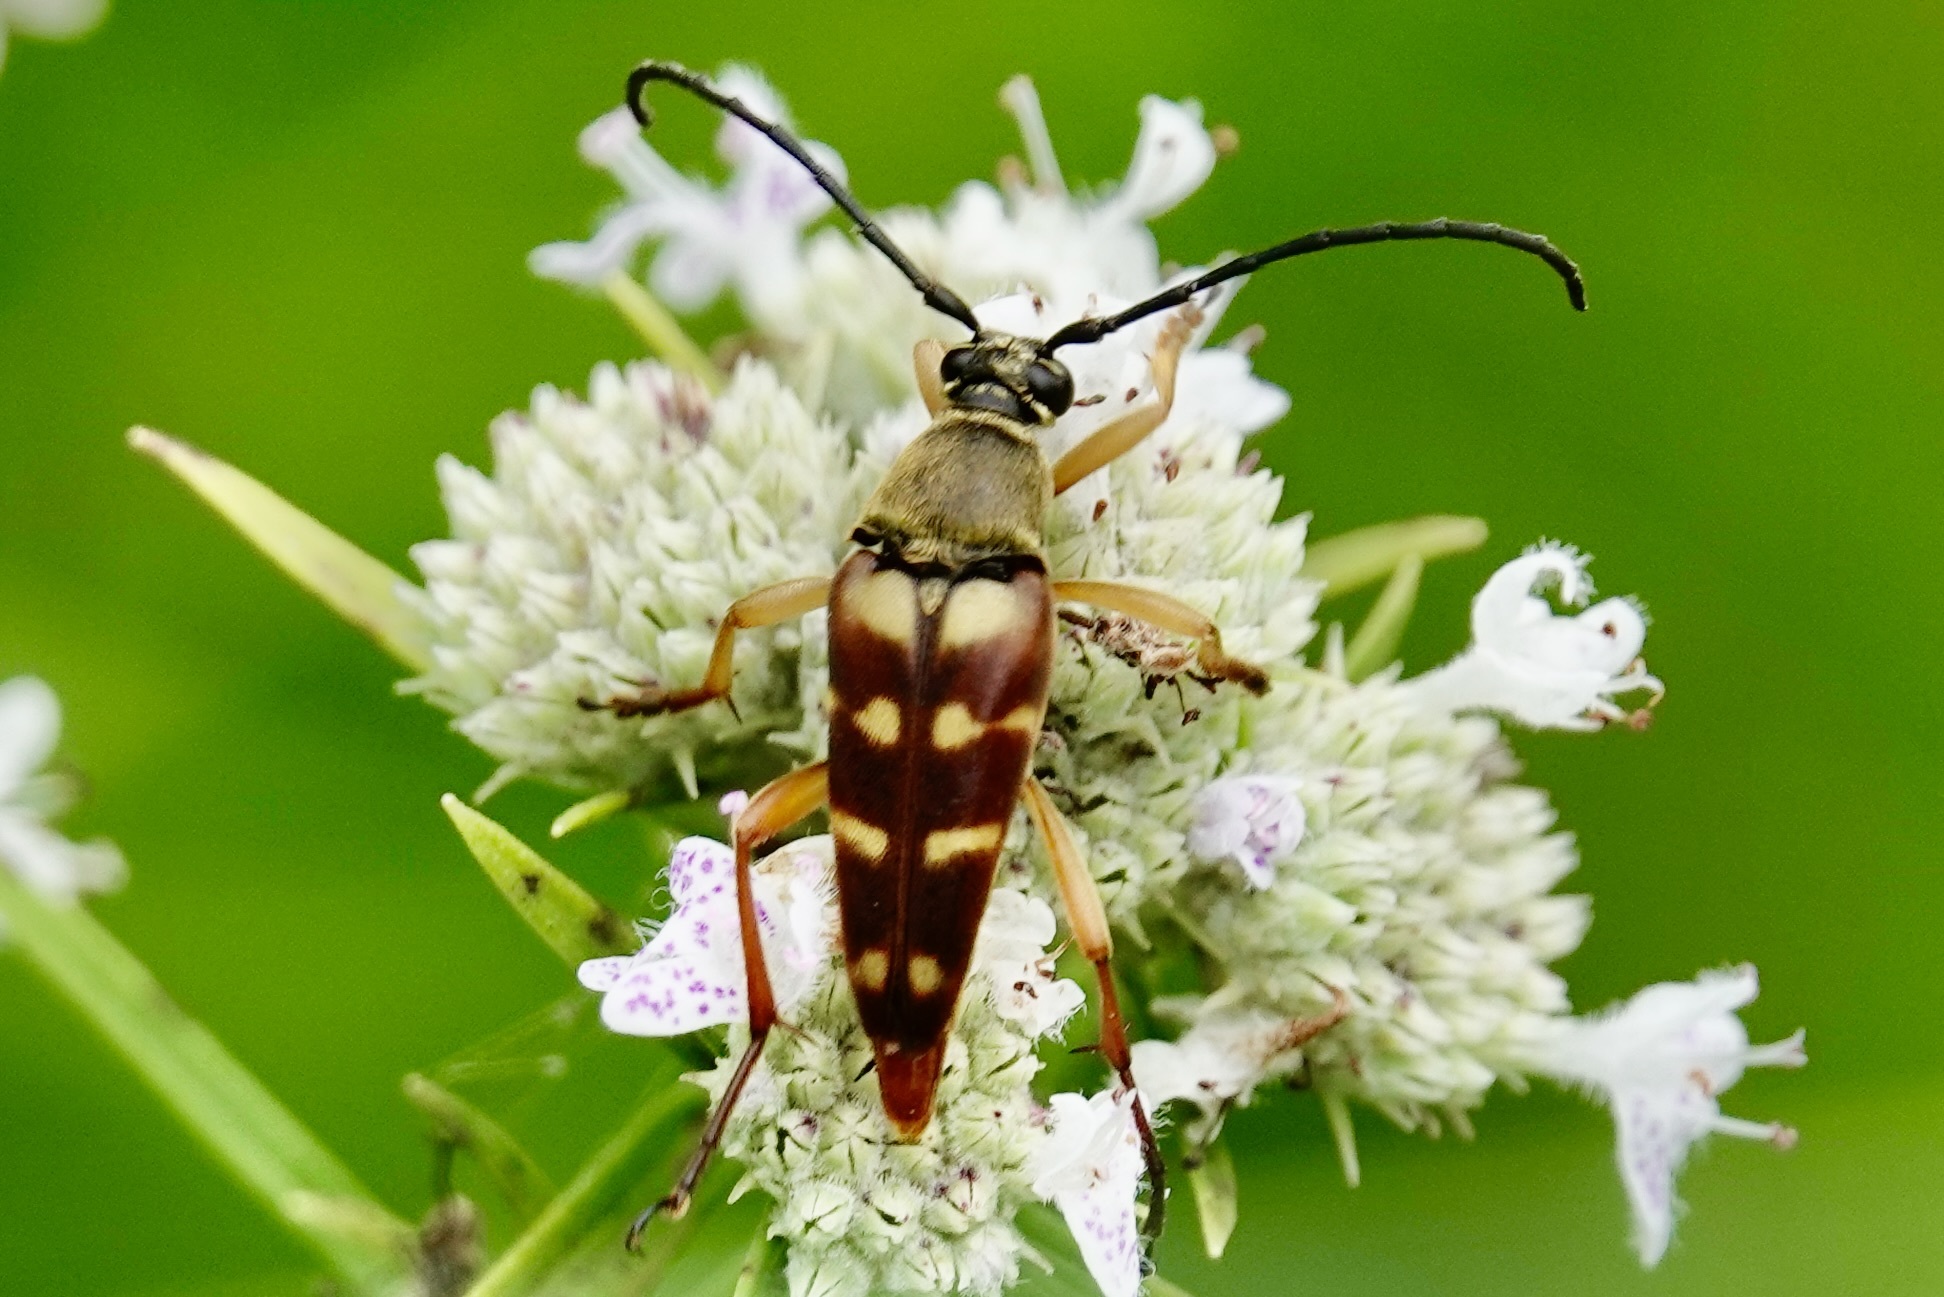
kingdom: Animalia
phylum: Arthropoda
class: Insecta
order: Coleoptera
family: Cerambycidae
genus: Typocerus
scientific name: Typocerus velutinus
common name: Banded longhorn beetle
